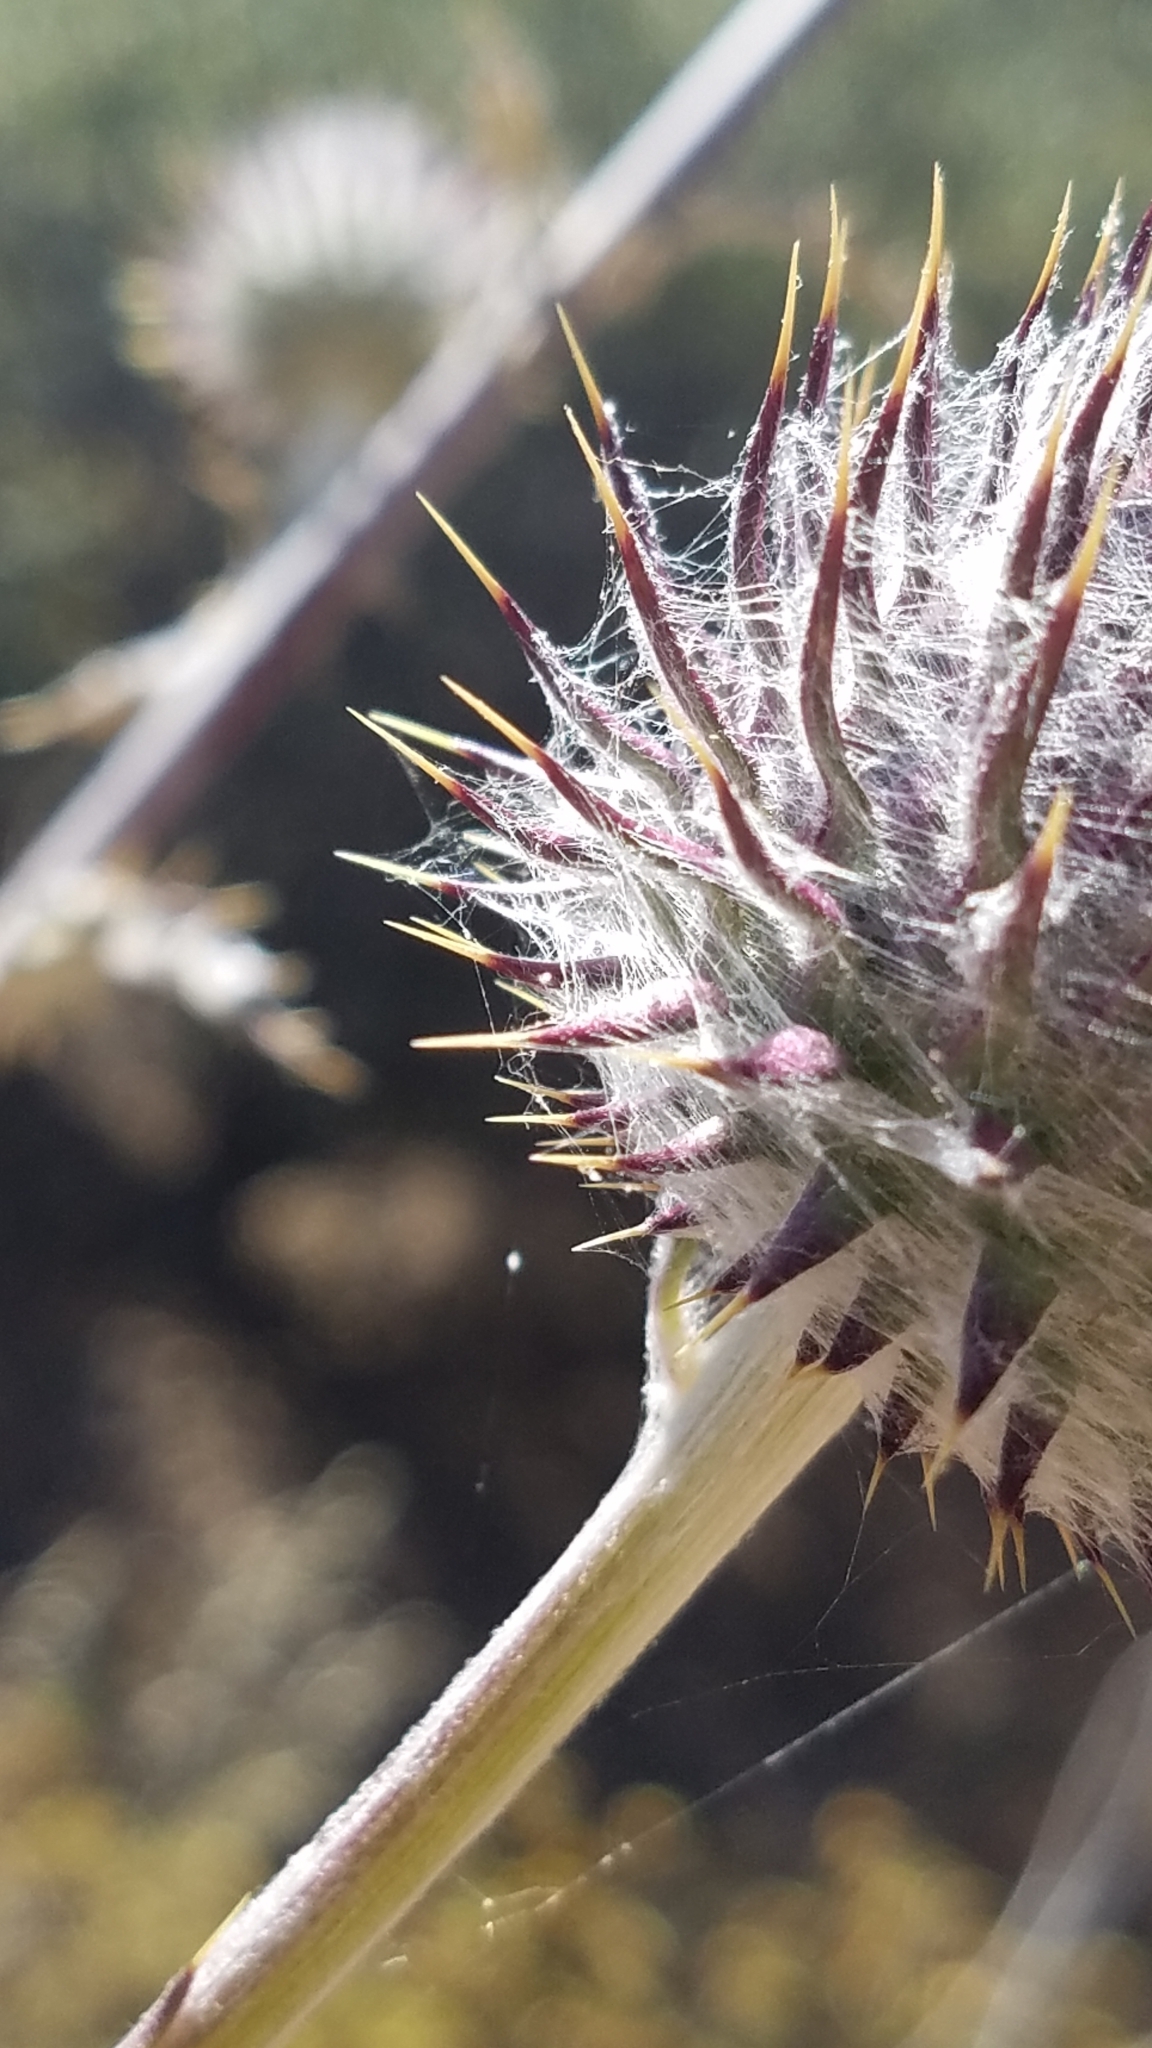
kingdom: Plantae
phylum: Tracheophyta
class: Magnoliopsida
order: Asterales
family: Asteraceae
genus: Cirsium
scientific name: Cirsium occidentale
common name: Western thistle
